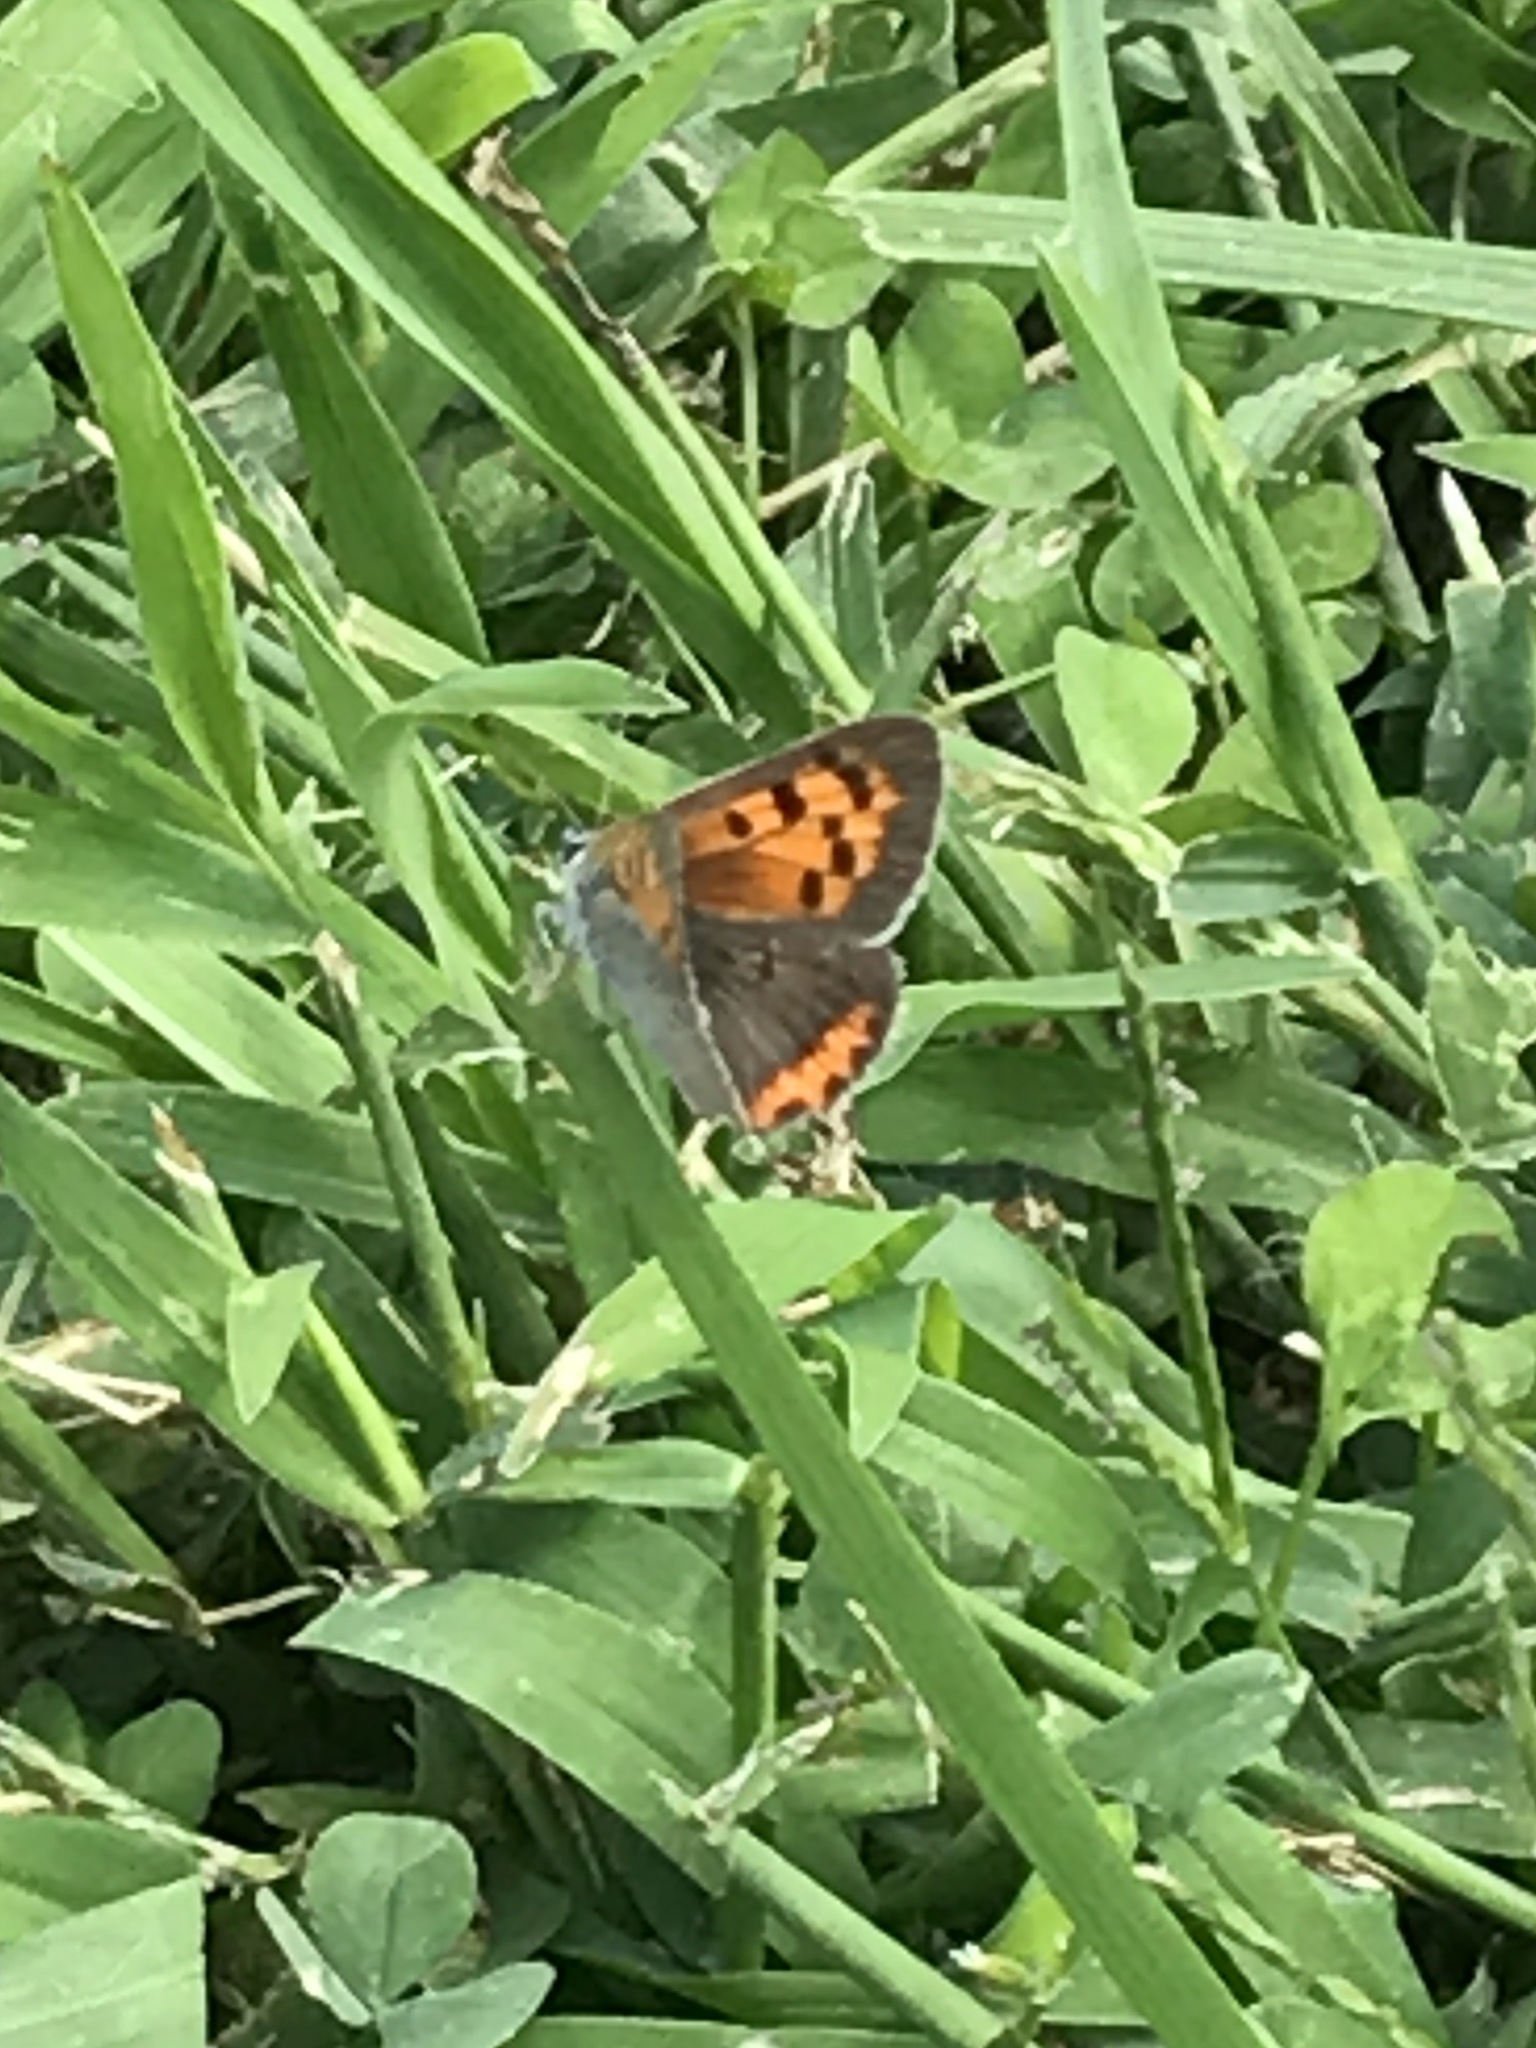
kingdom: Animalia
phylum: Arthropoda
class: Insecta
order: Lepidoptera
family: Lycaenidae
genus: Lycaena
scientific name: Lycaena hypophlaeas
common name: American copper
